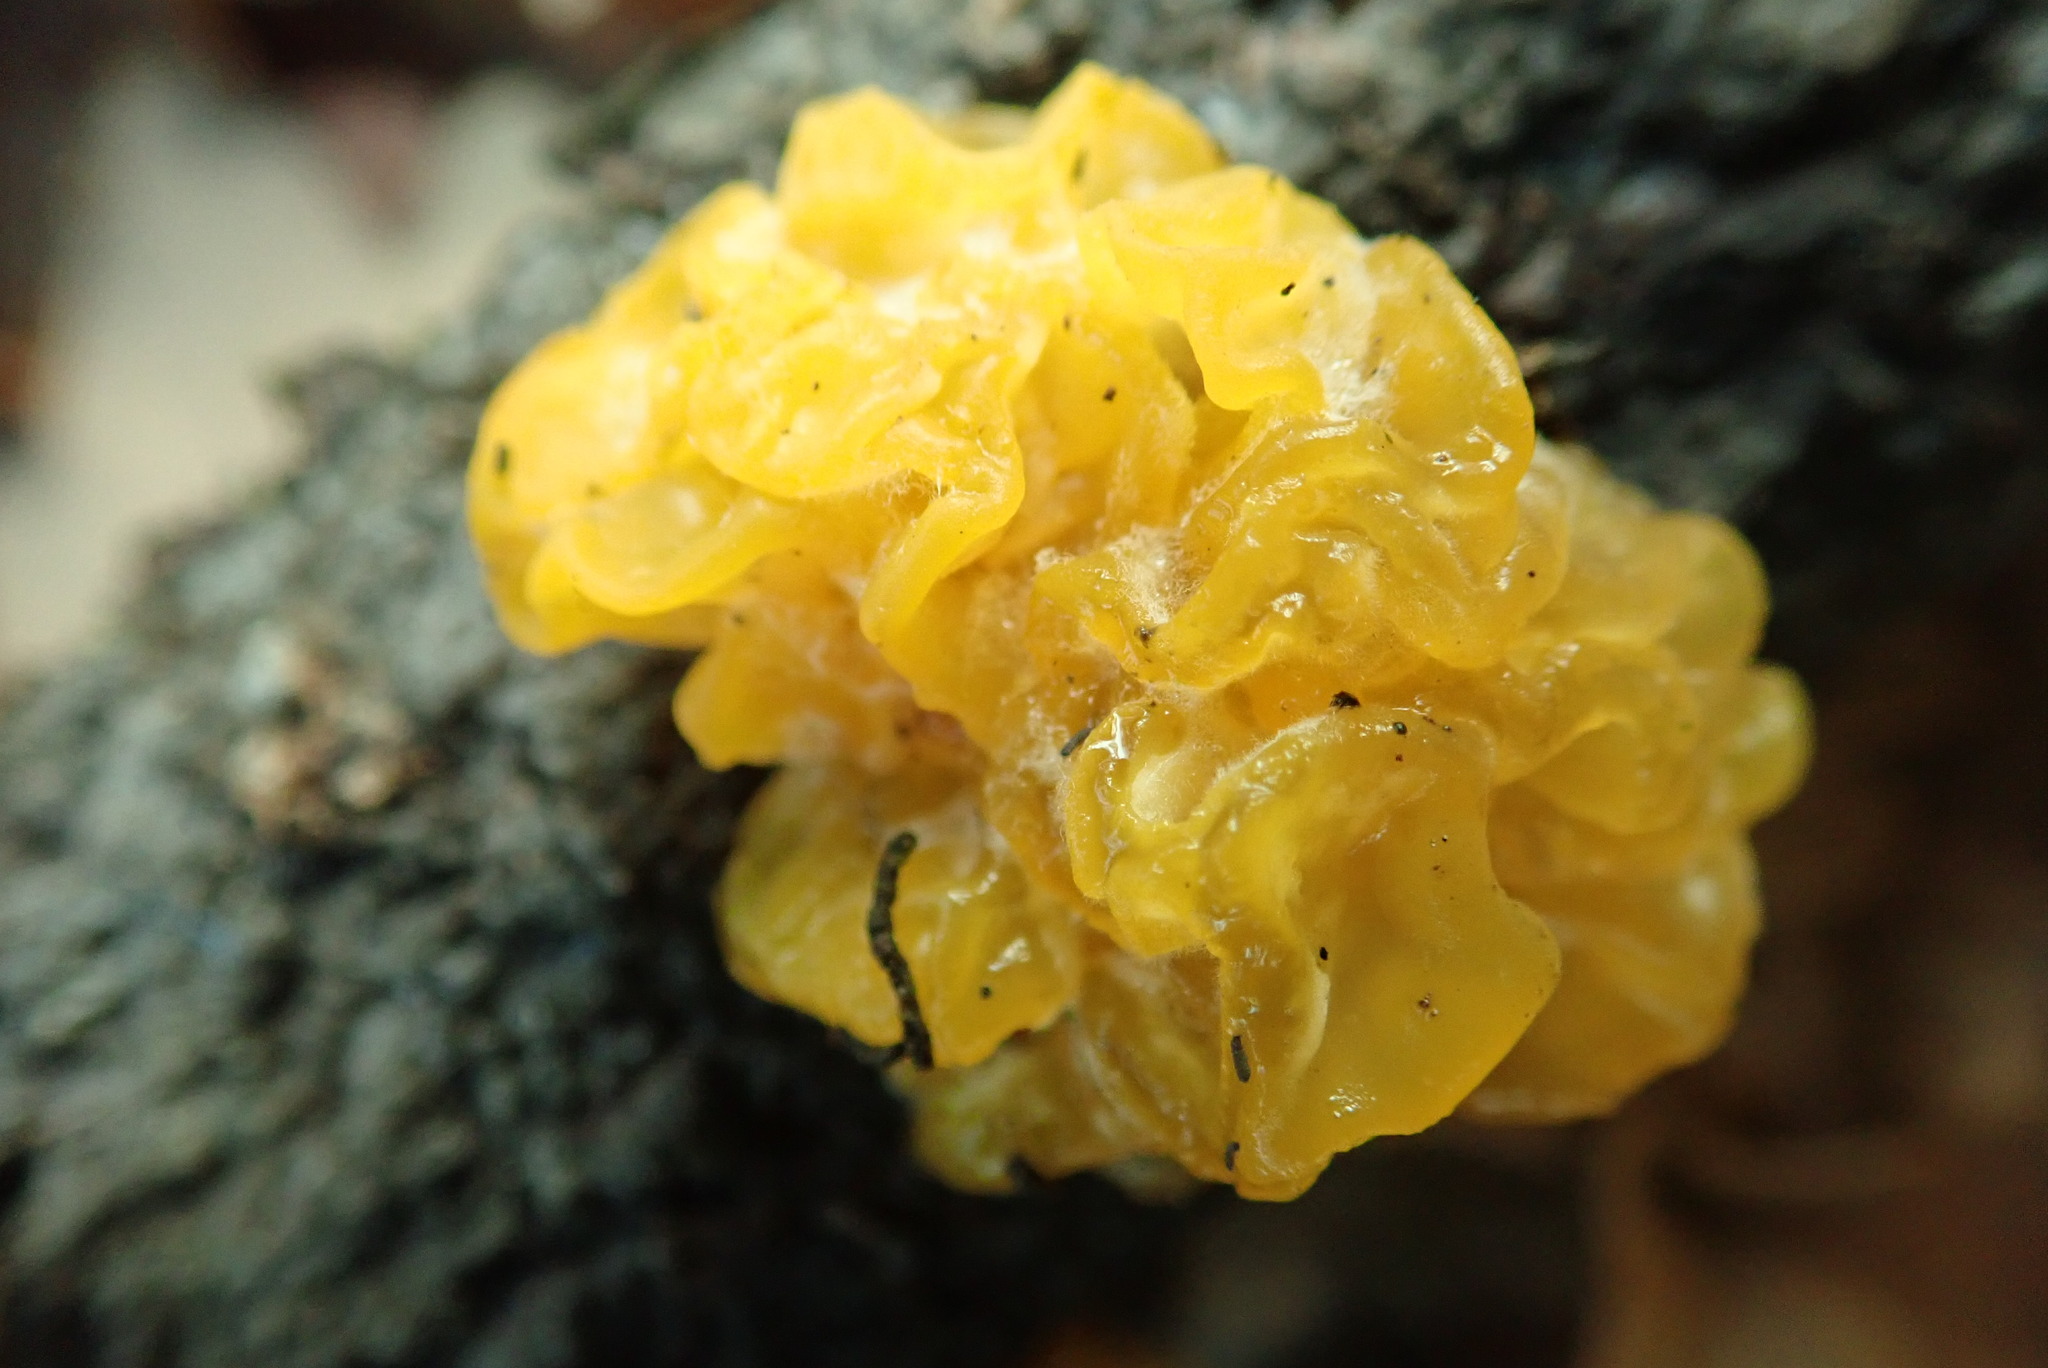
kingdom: Fungi
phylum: Basidiomycota
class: Tremellomycetes
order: Tremellales
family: Tremellaceae
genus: Tremella
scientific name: Tremella mesenterica
